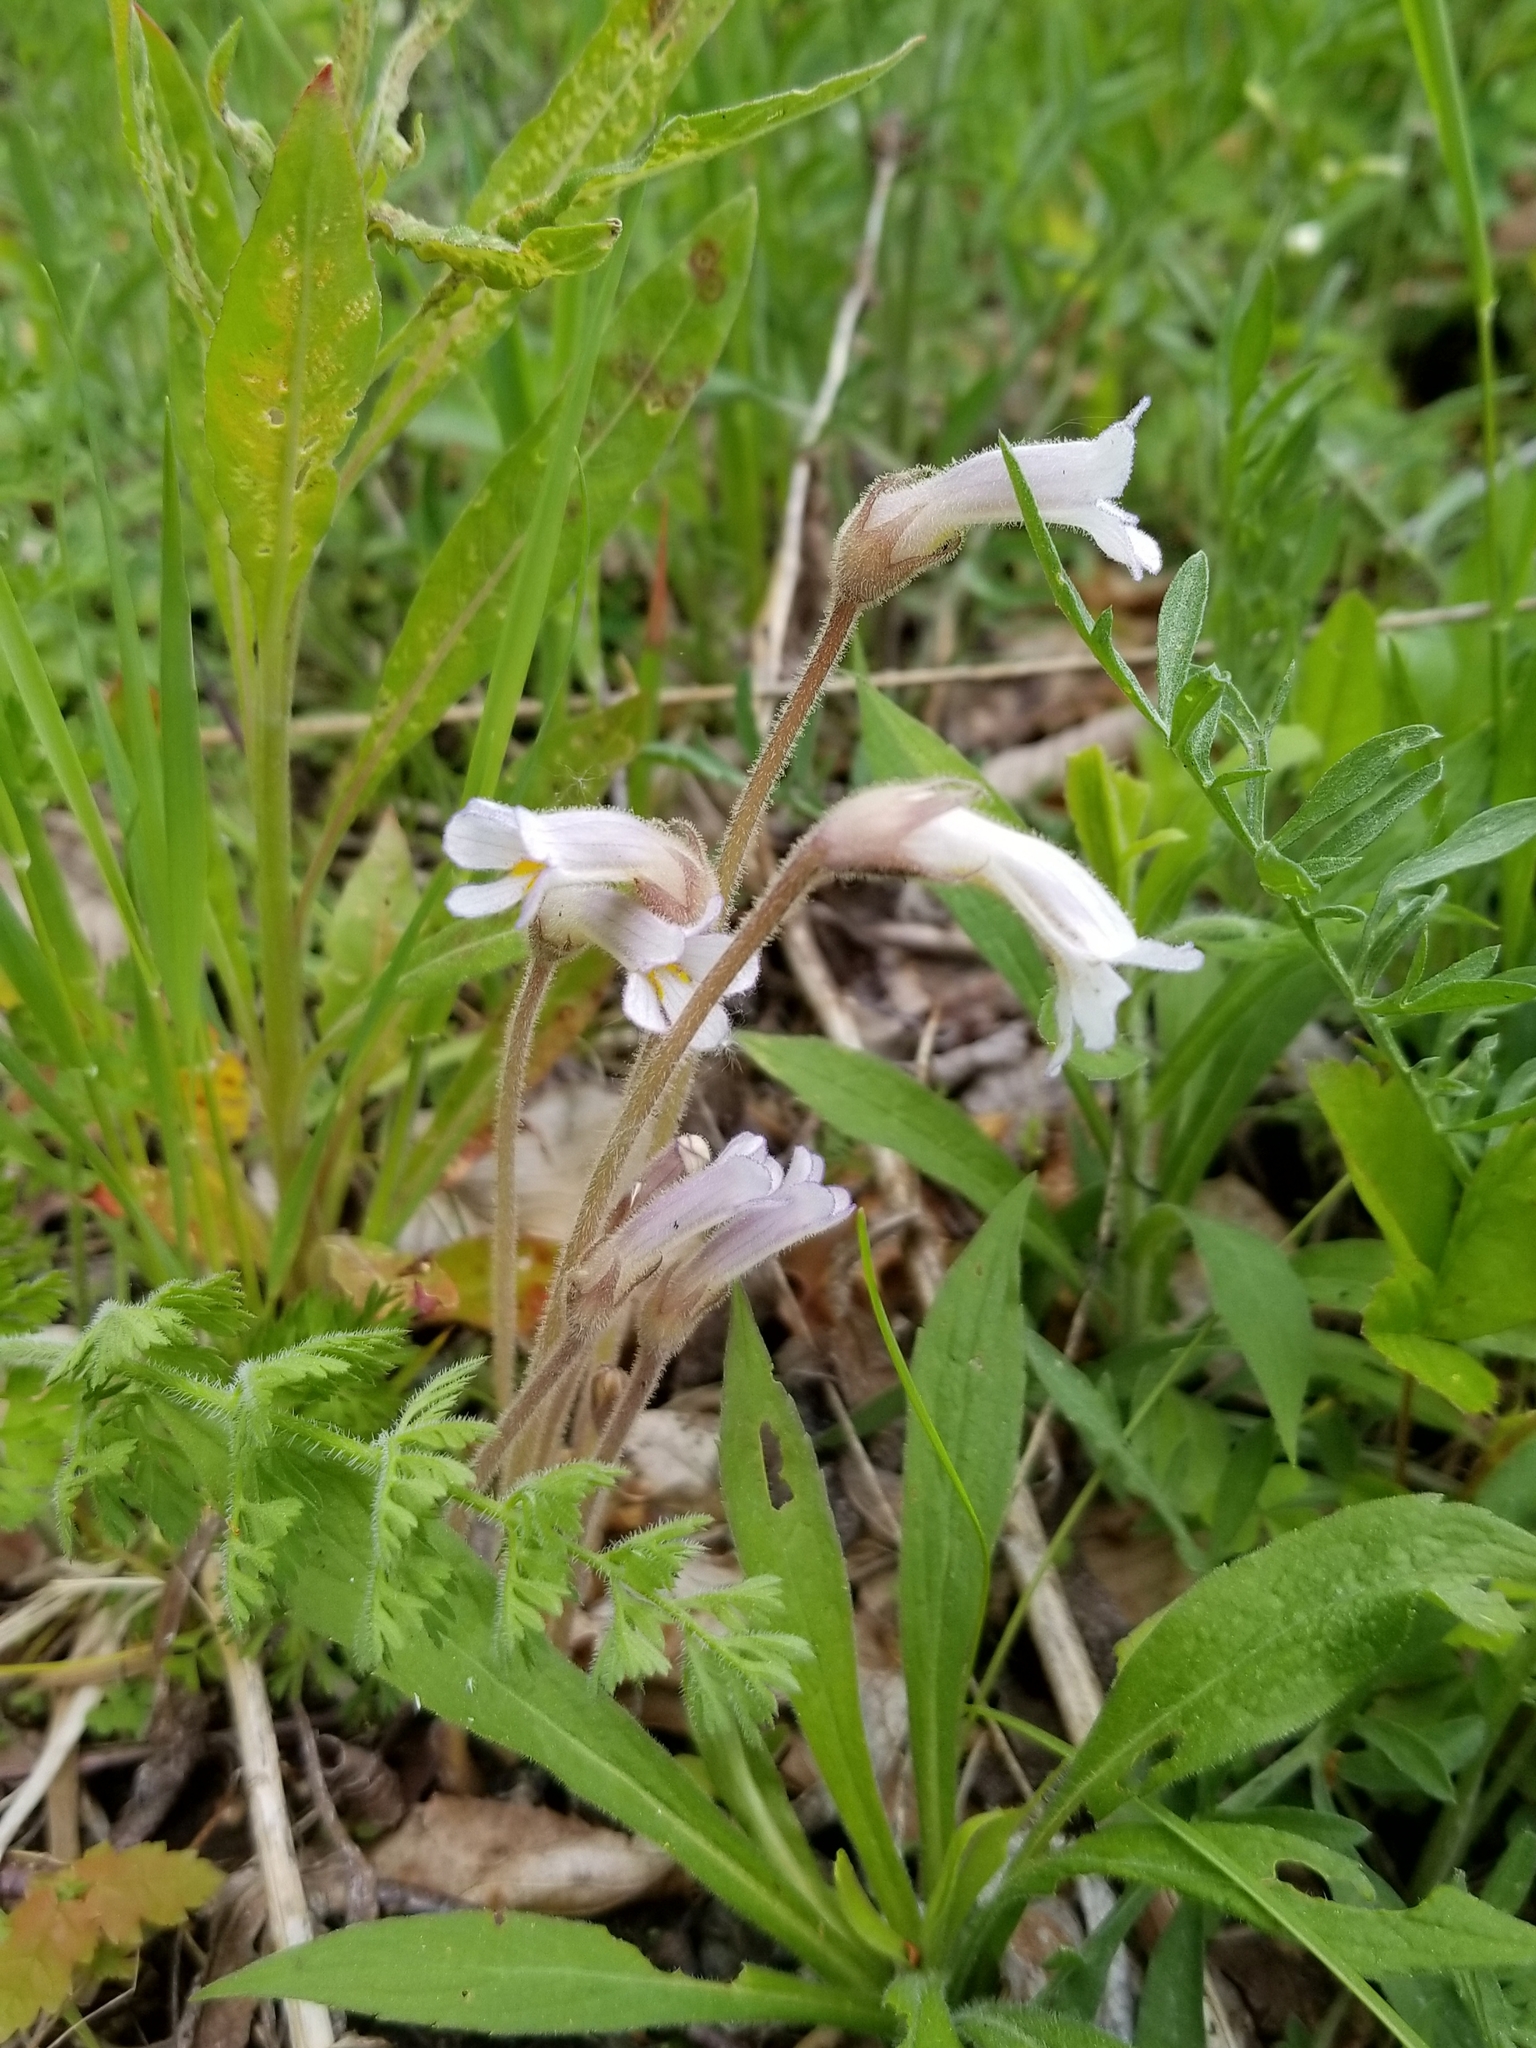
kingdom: Plantae
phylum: Tracheophyta
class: Magnoliopsida
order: Lamiales
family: Orobanchaceae
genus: Aphyllon
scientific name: Aphyllon uniflorum
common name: One-flowered broomrape
